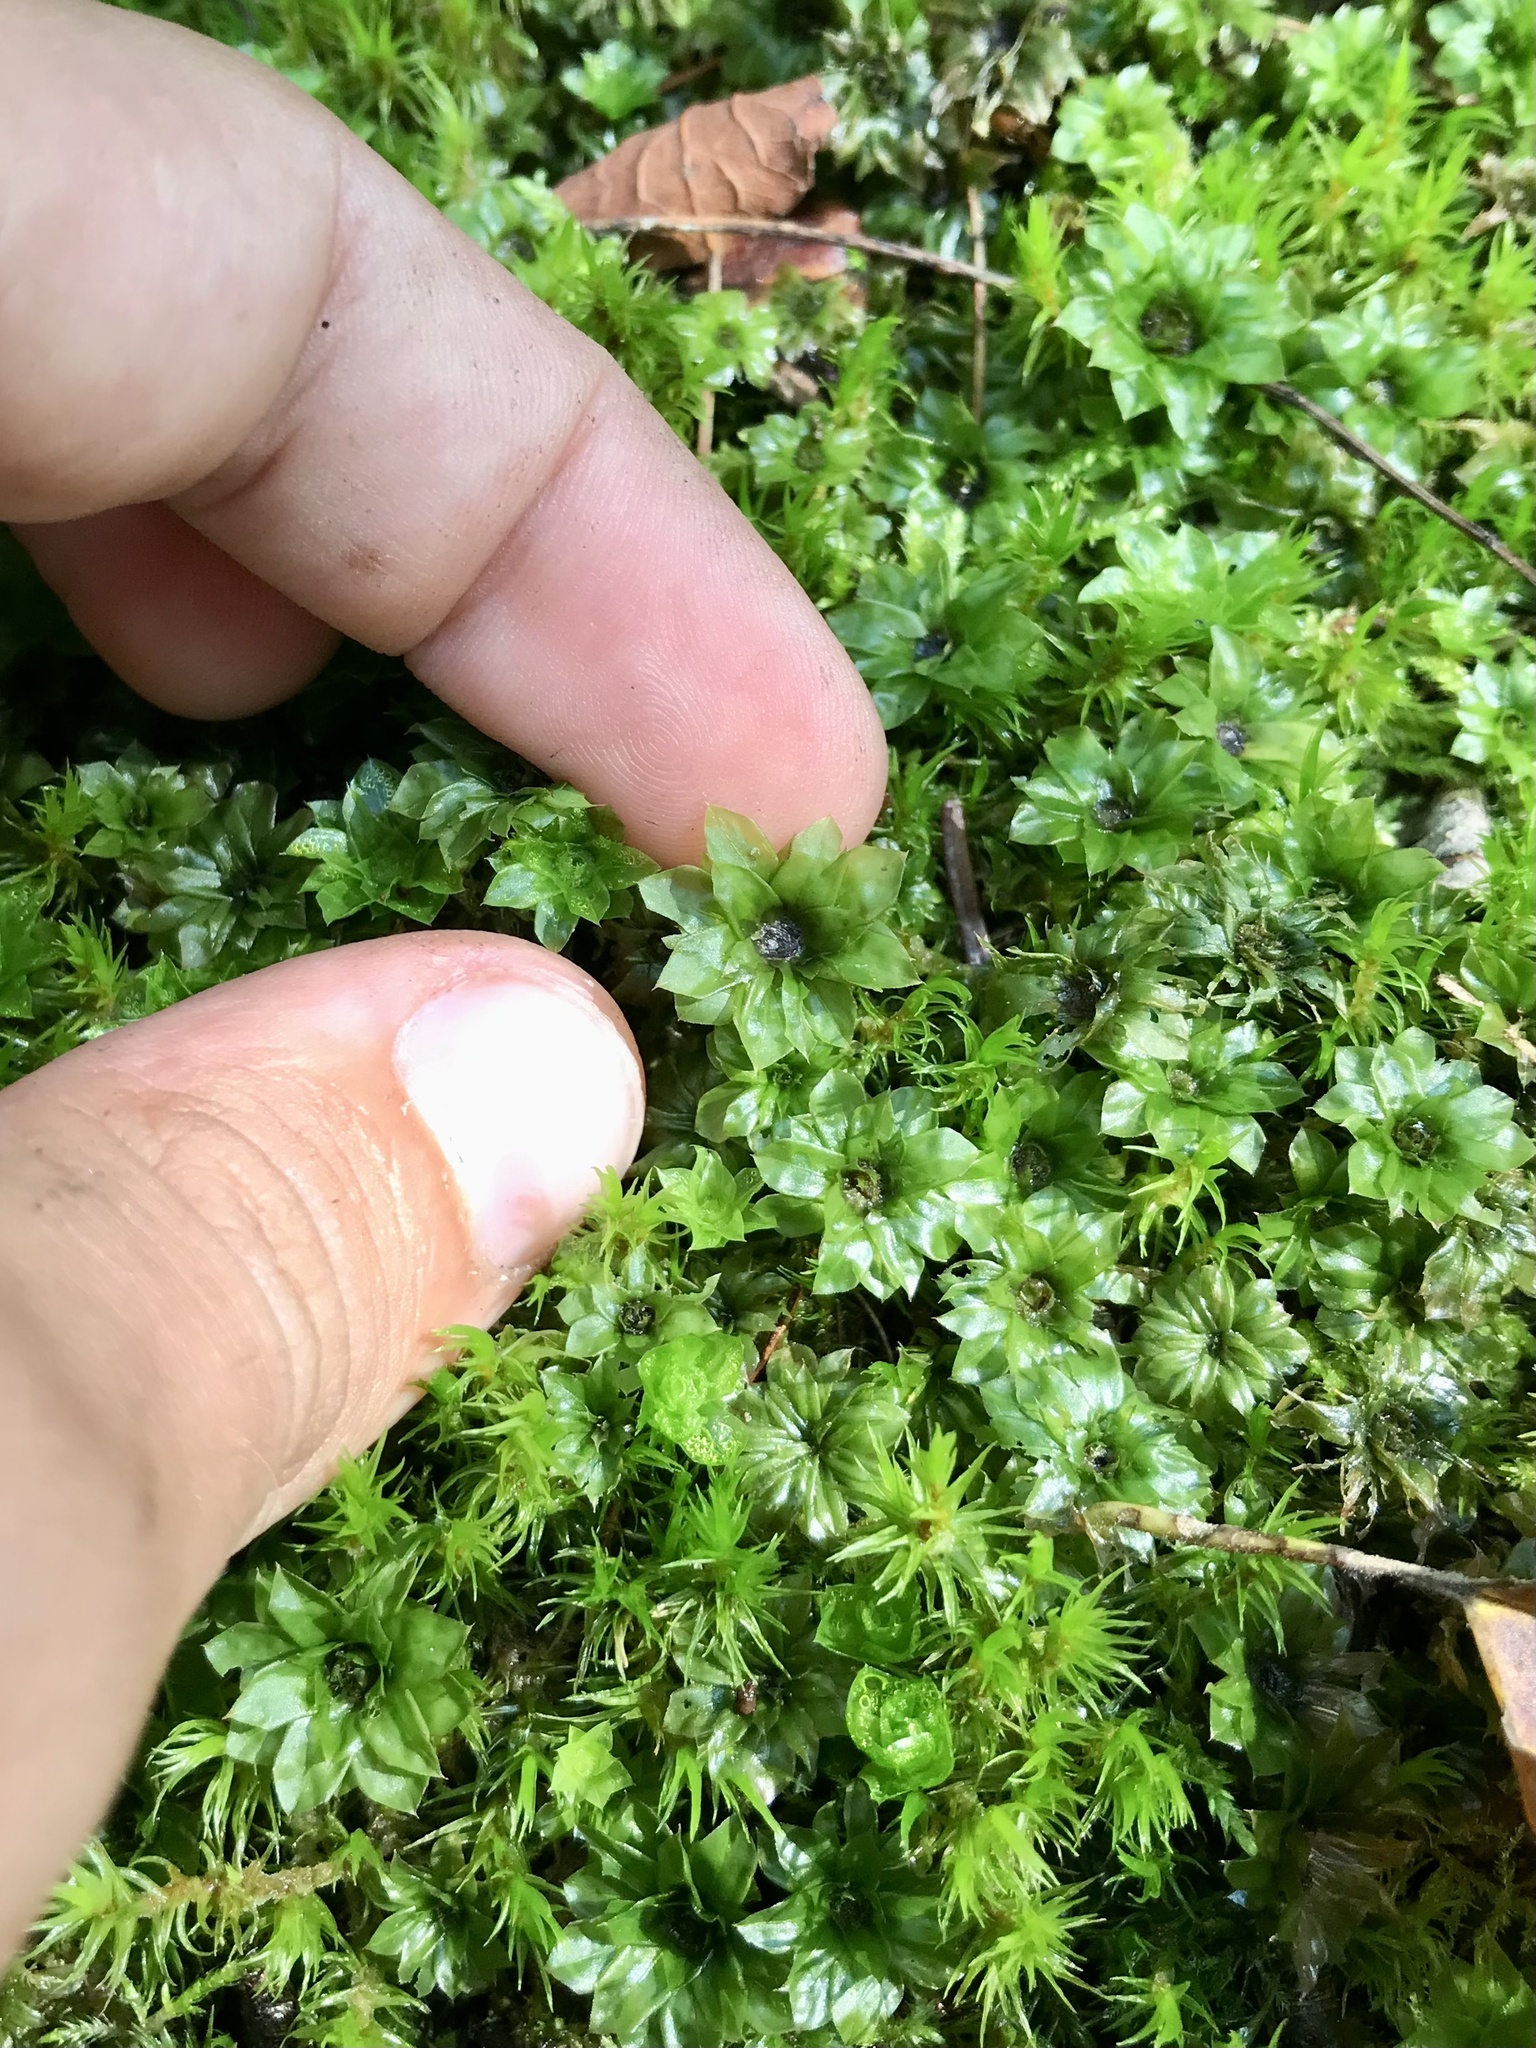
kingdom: Plantae
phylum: Bryophyta
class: Bryopsida
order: Bryales
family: Bryaceae
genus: Rhodobryum
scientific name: Rhodobryum ontariense
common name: Ontario rhodobryum moss
